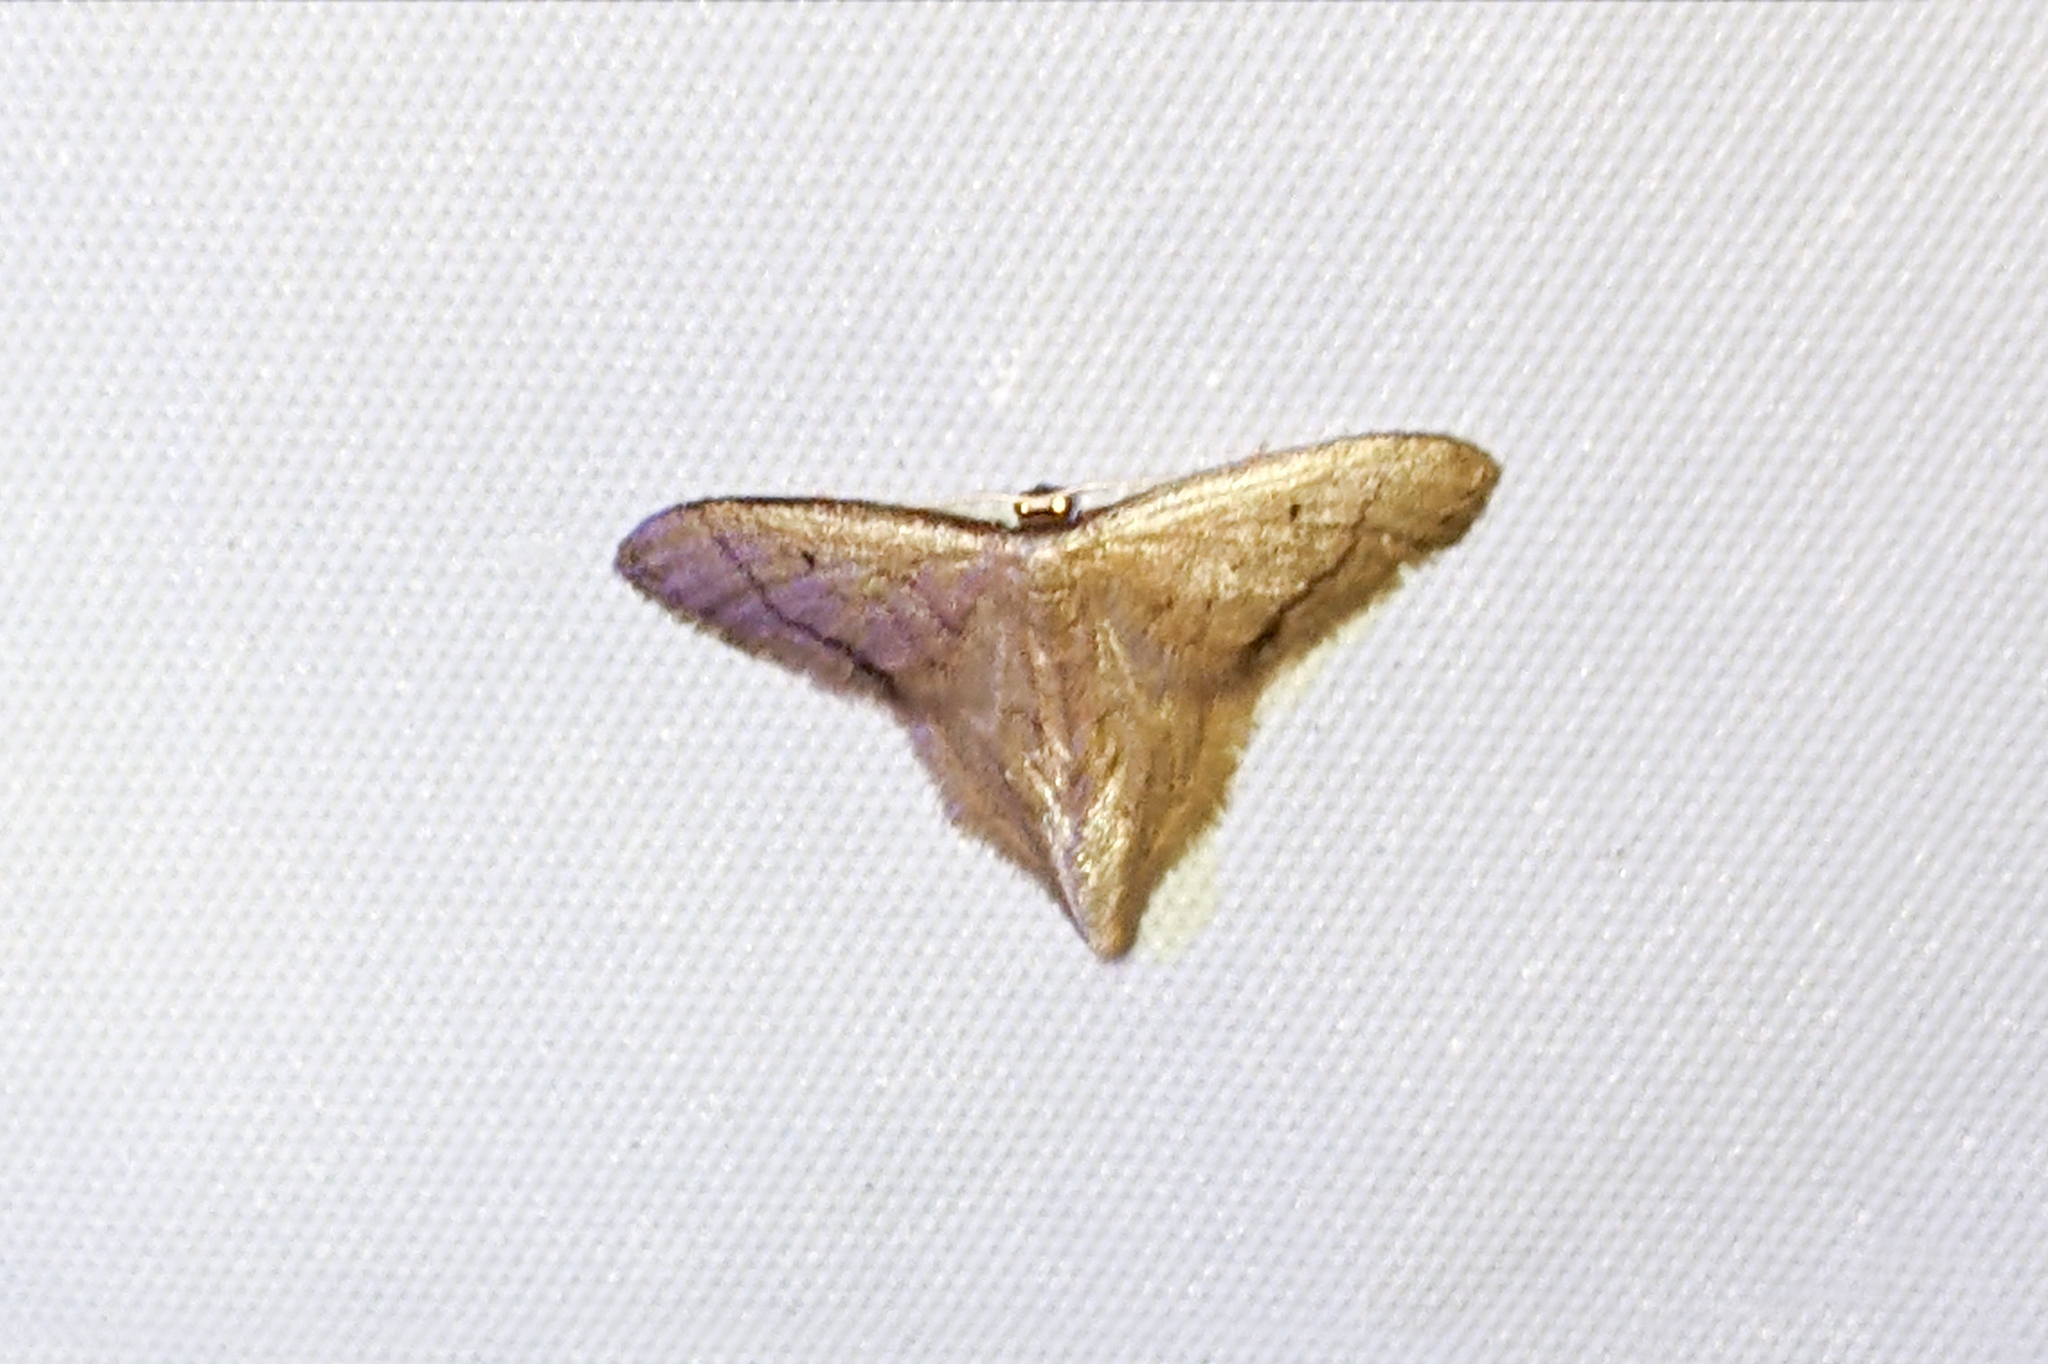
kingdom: Animalia
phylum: Arthropoda
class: Insecta
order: Lepidoptera
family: Geometridae
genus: Idaea
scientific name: Idaea speciosa
